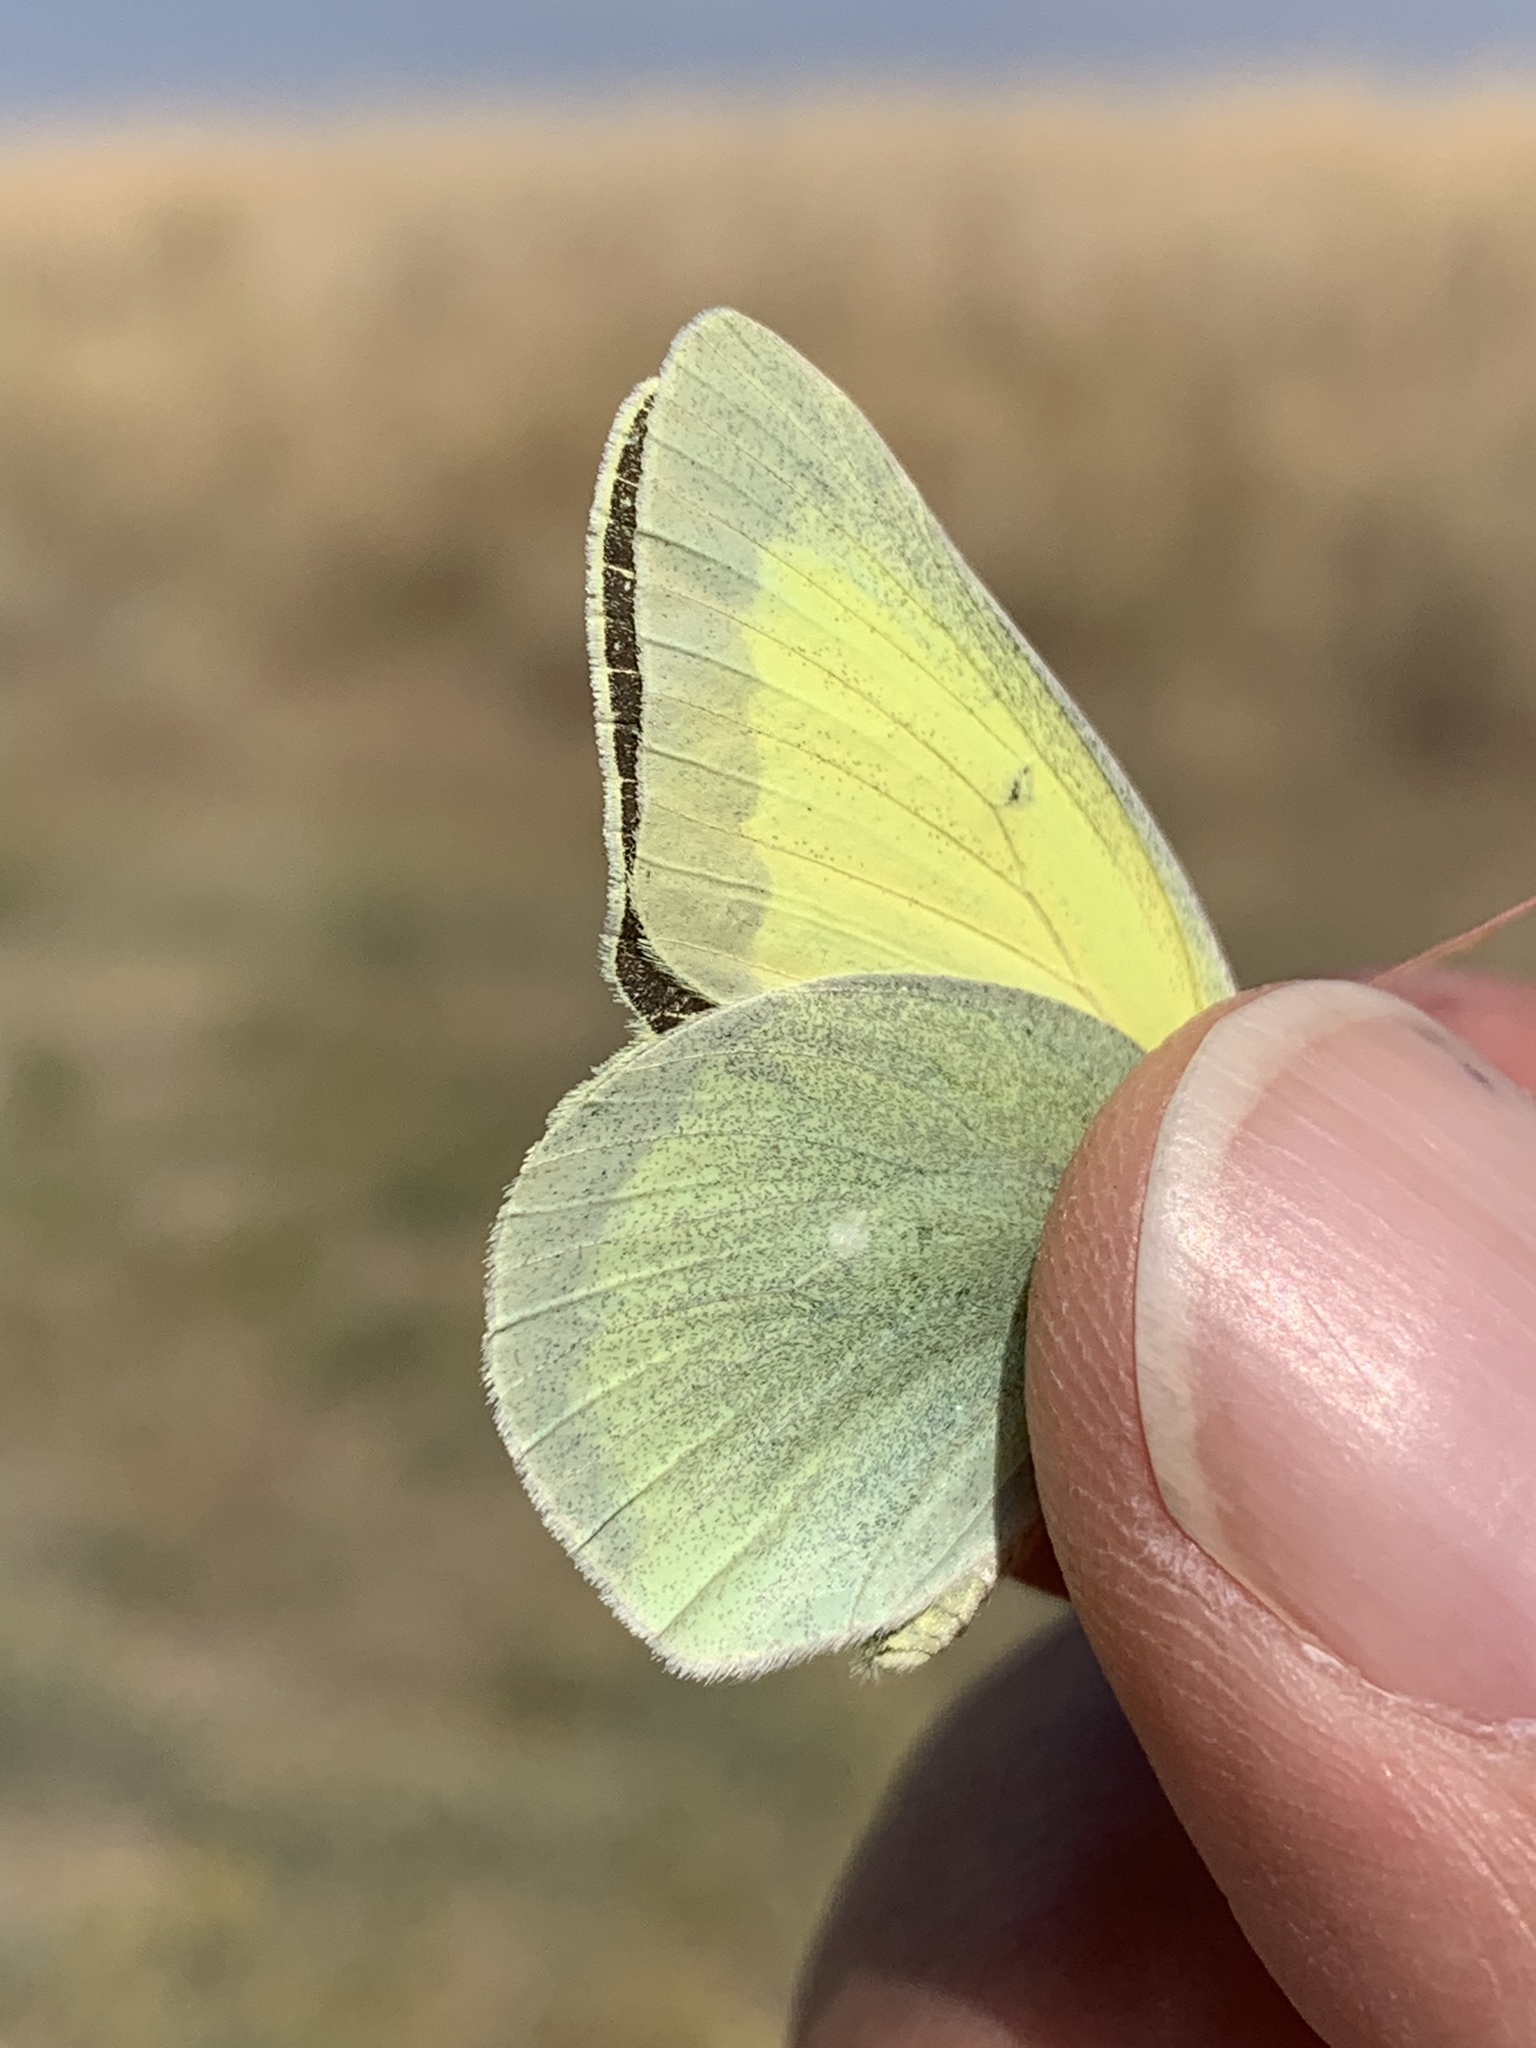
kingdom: Animalia
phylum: Arthropoda
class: Insecta
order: Lepidoptera
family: Pieridae
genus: Colias
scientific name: Colias alexandra
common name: Alexandra sulphur
